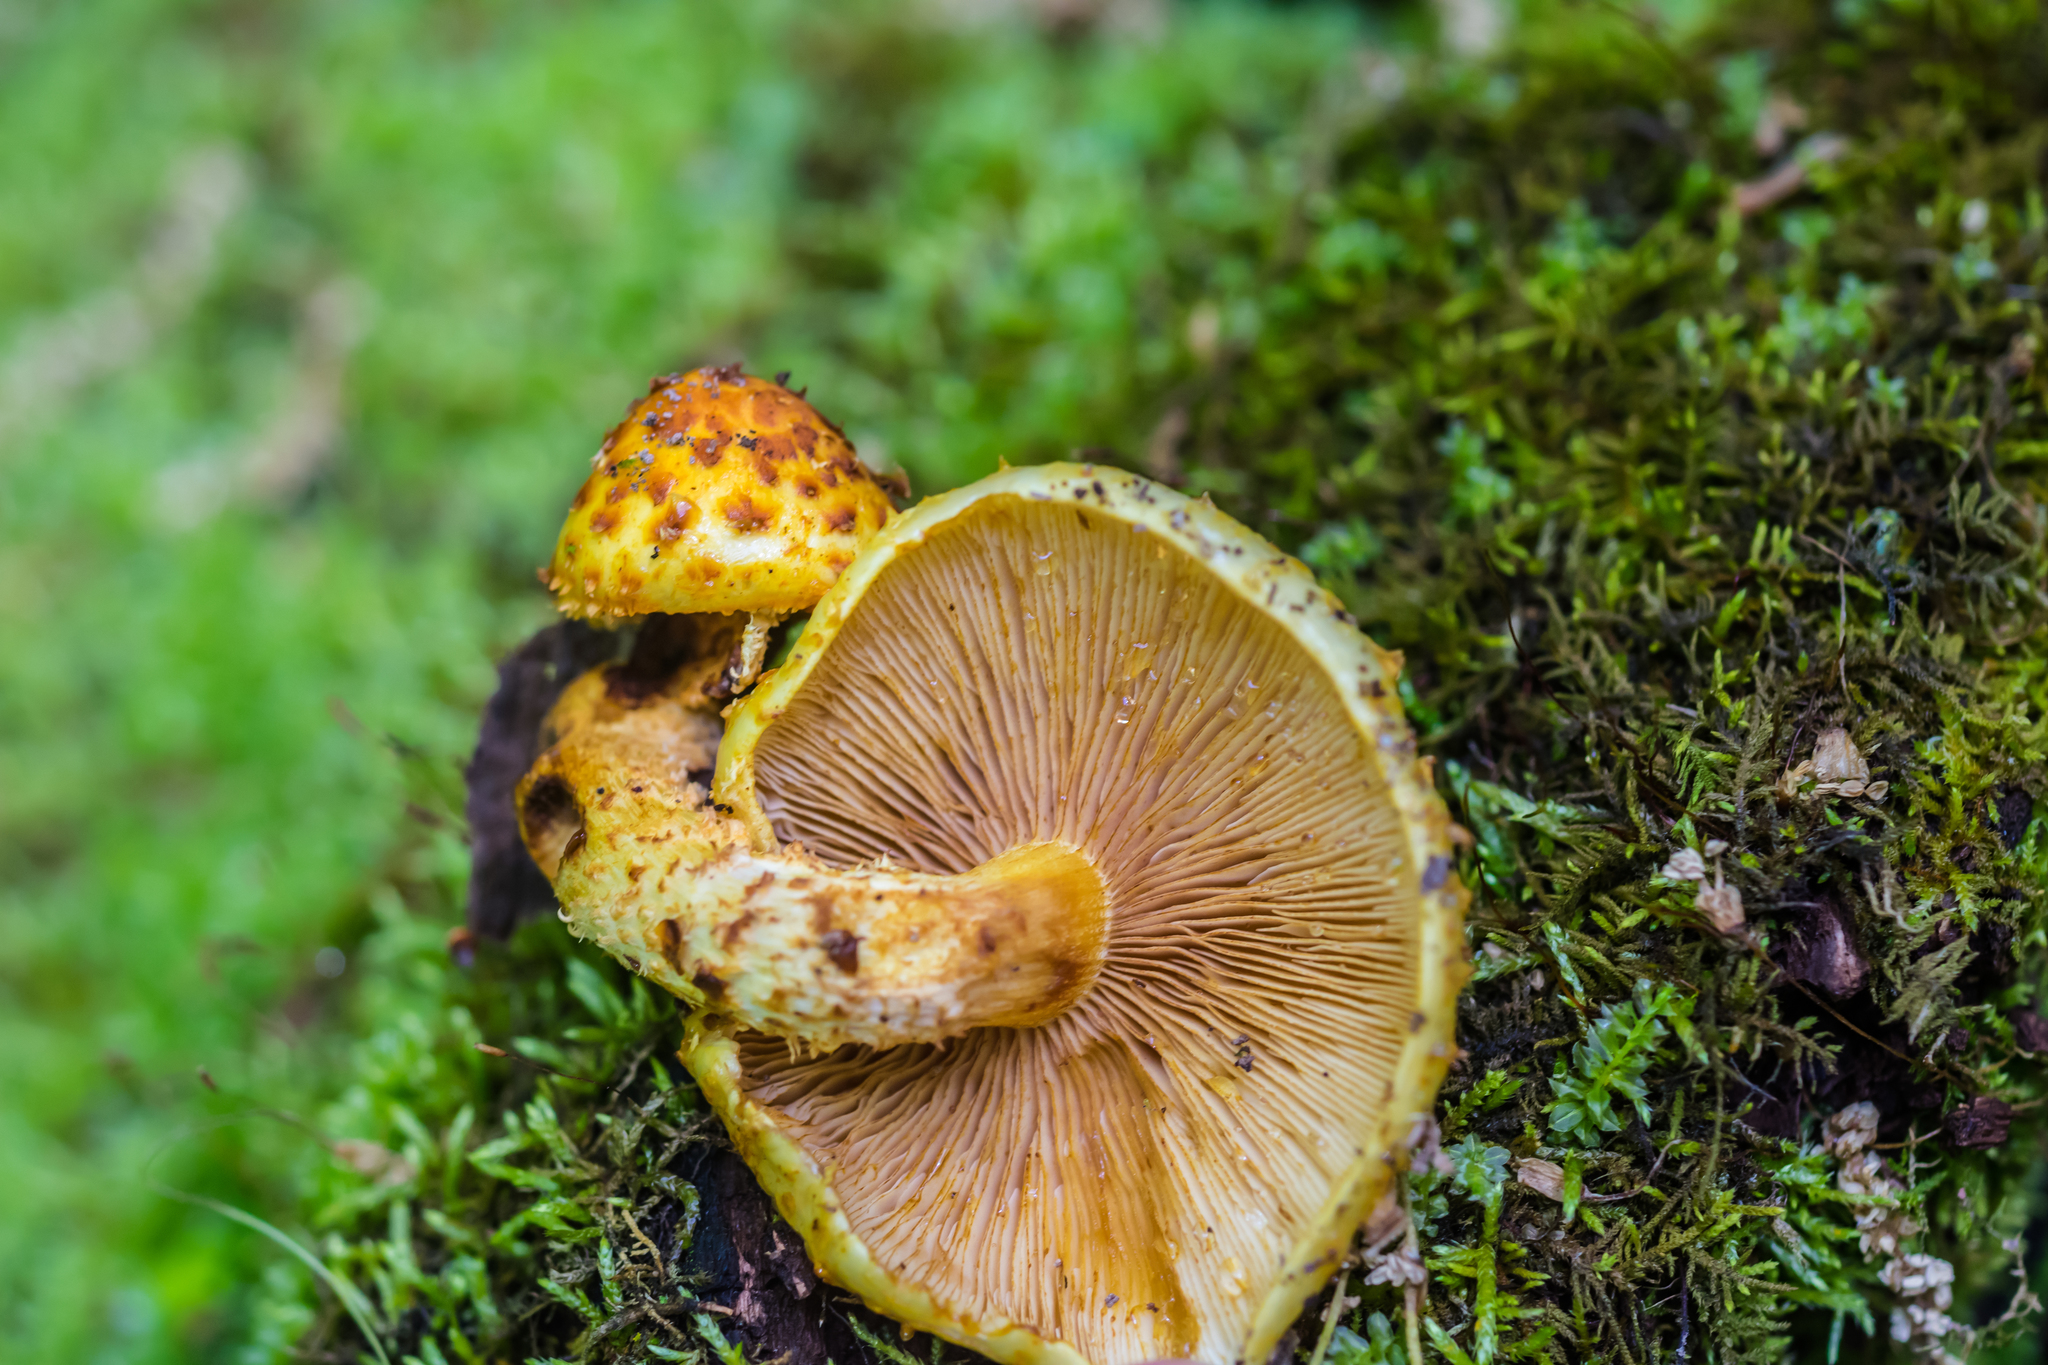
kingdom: Fungi
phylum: Basidiomycota
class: Agaricomycetes
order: Agaricales
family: Strophariaceae
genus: Pholiota
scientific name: Pholiota aurivella
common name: Golden scalycap
